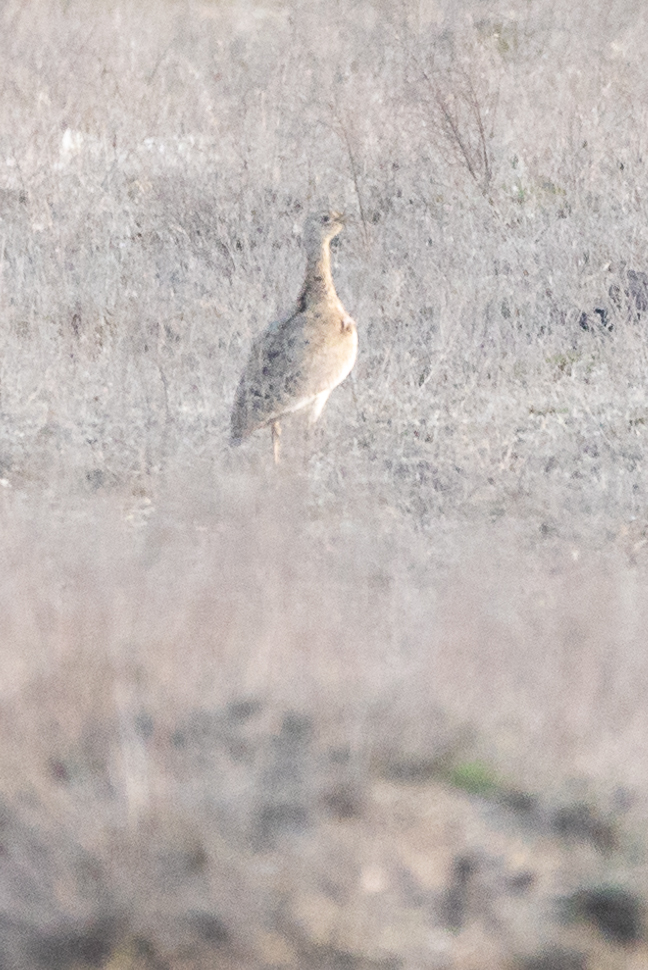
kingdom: Animalia
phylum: Chordata
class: Aves
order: Otidiformes
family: Otididae
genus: Tetrax
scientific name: Tetrax tetrax
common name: Little bustard
